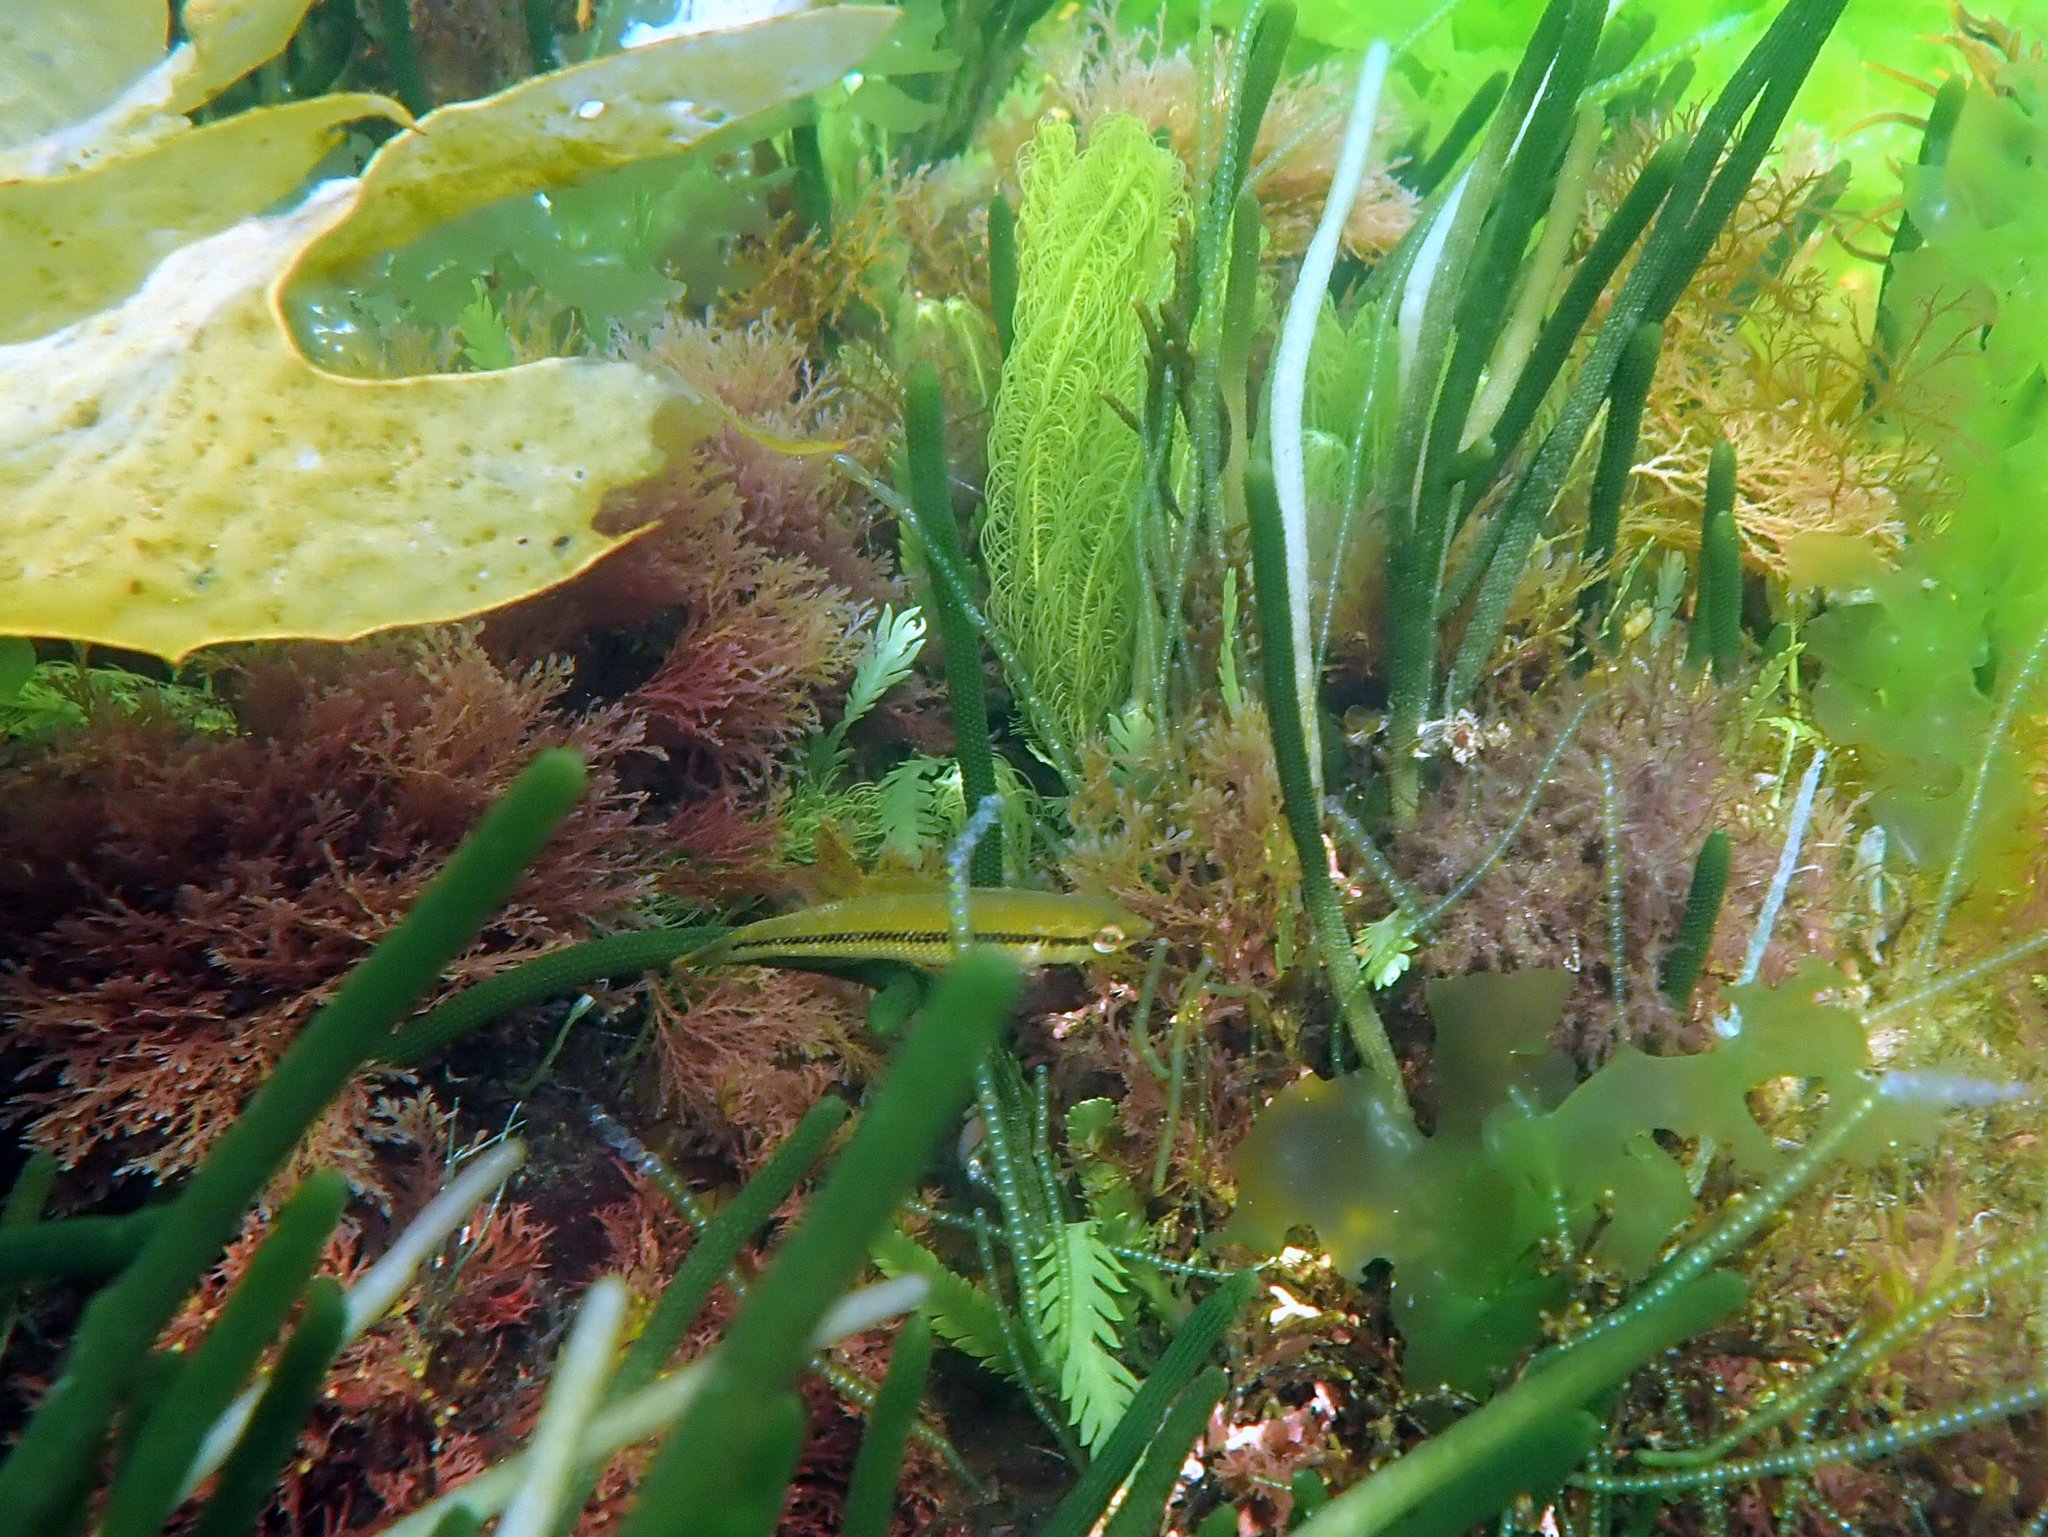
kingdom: Animalia
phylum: Chordata
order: Perciformes
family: Odacidae
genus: Neoodax
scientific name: Neoodax balteatus
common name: Ground mullet
